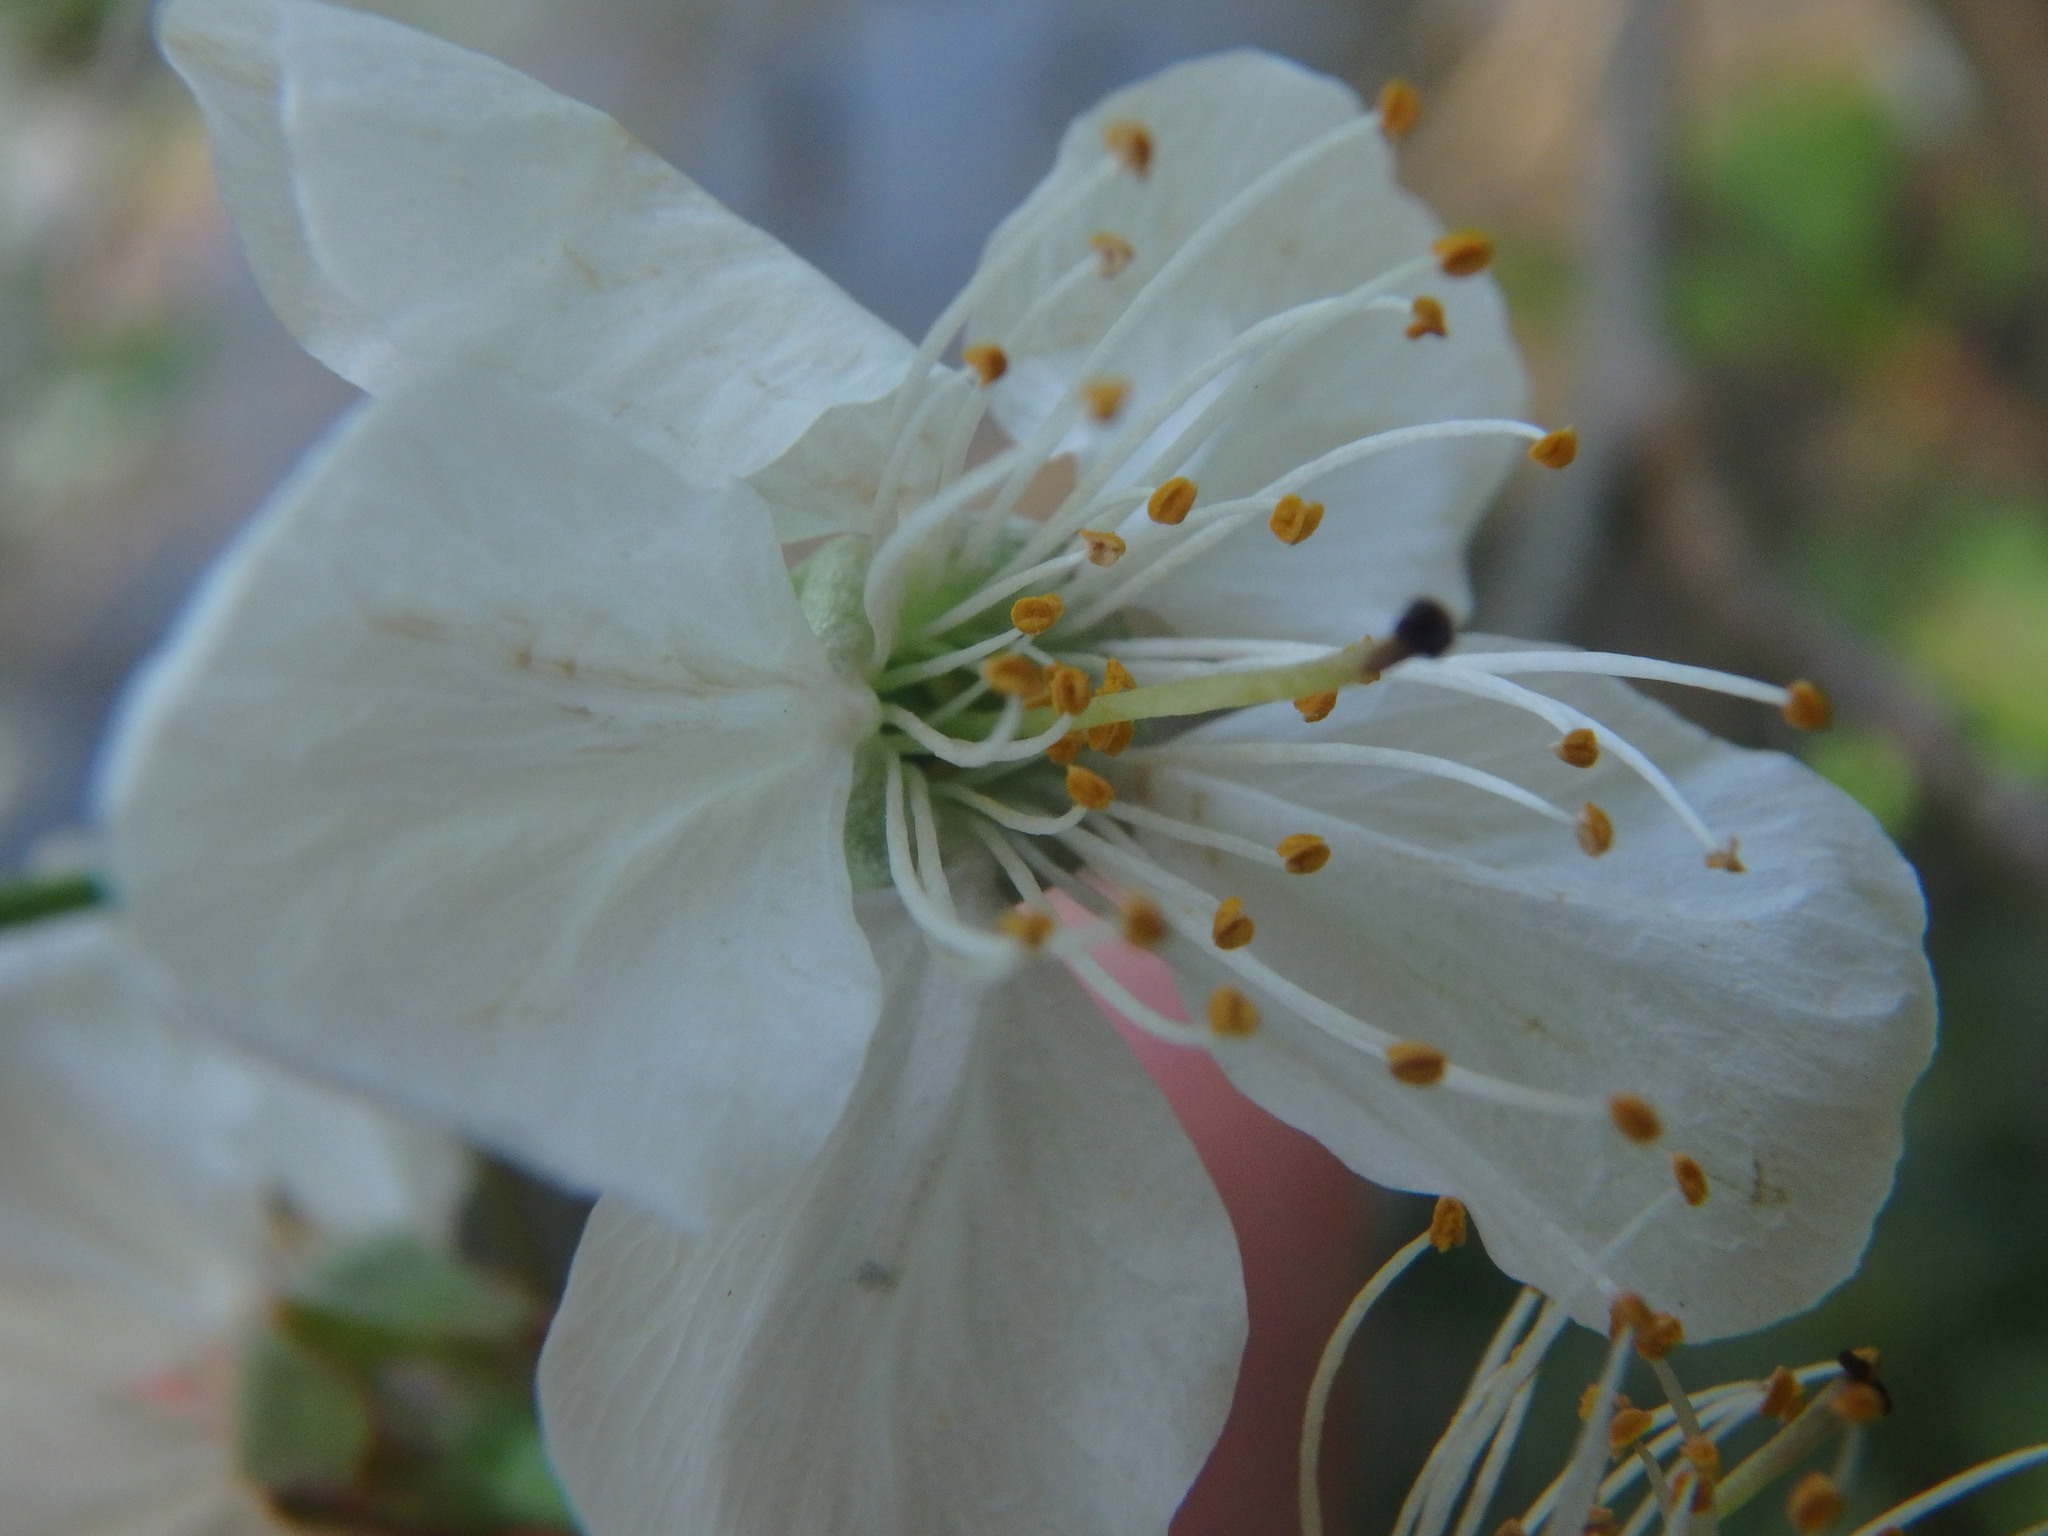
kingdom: Plantae
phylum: Tracheophyta
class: Magnoliopsida
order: Rosales
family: Rosaceae
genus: Prunus
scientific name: Prunus avium
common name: Sweet cherry
